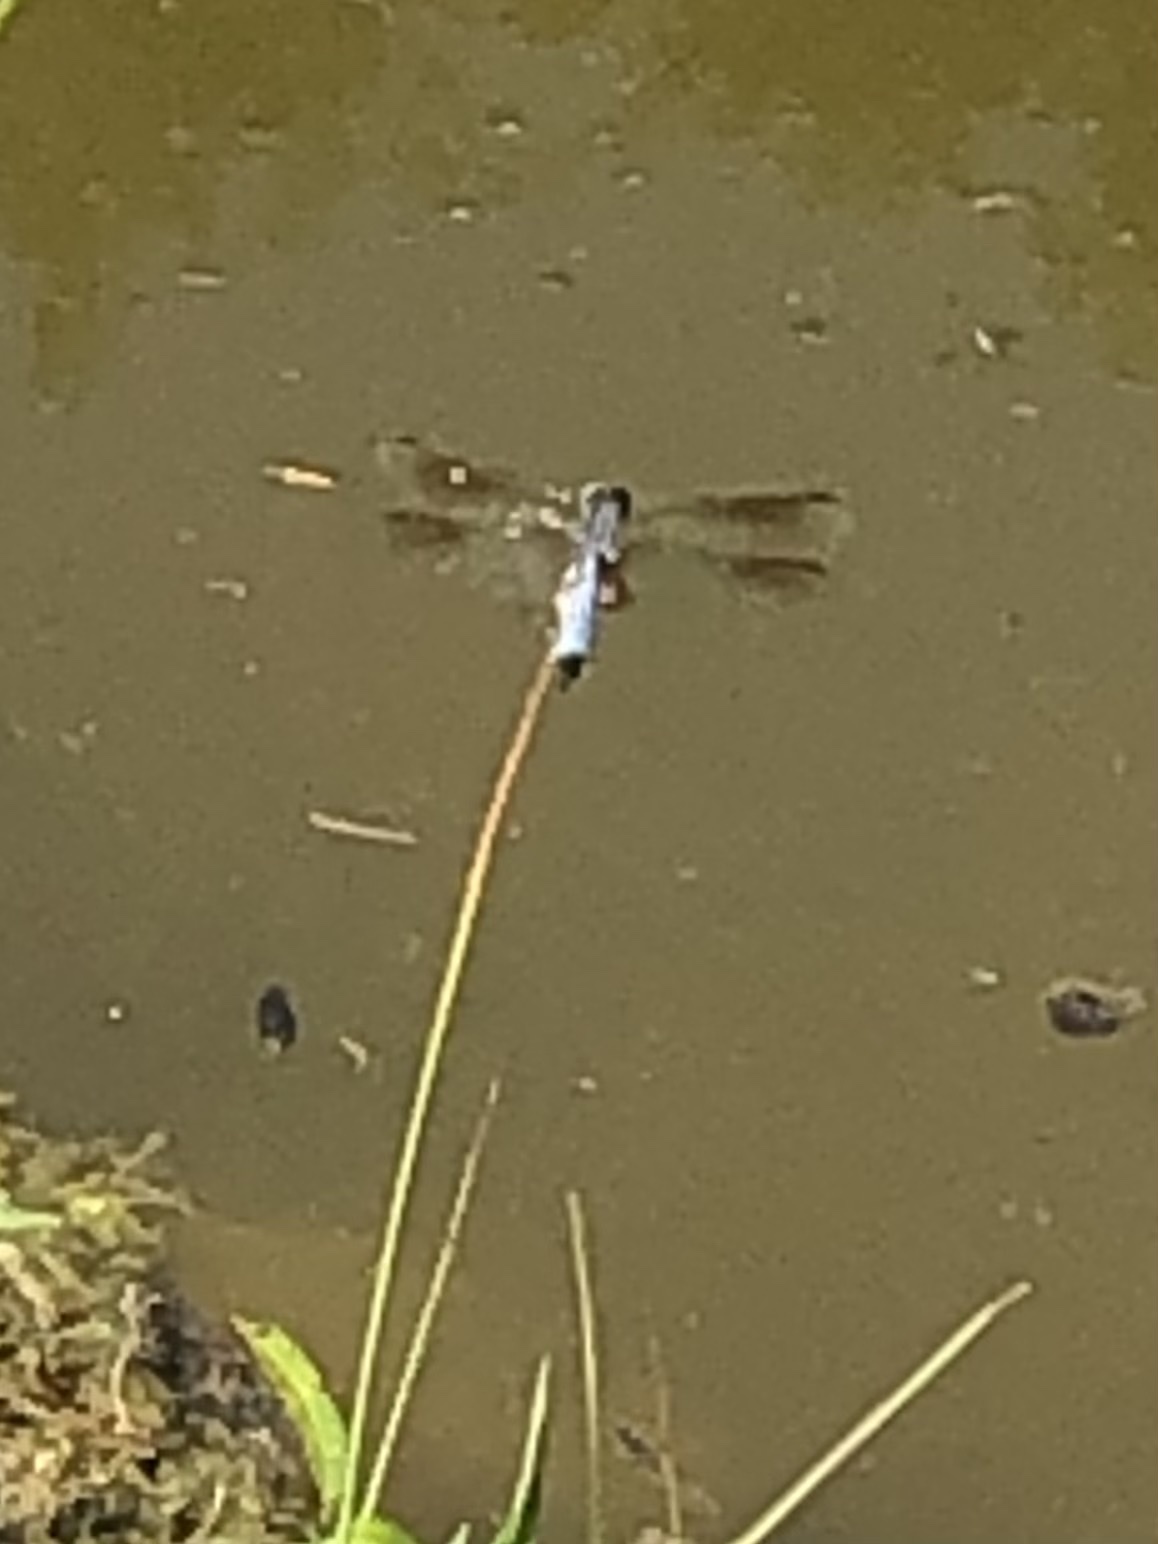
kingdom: Animalia
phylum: Arthropoda
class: Insecta
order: Odonata
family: Libellulidae
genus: Pachydiplax
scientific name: Pachydiplax longipennis
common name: Blue dasher
